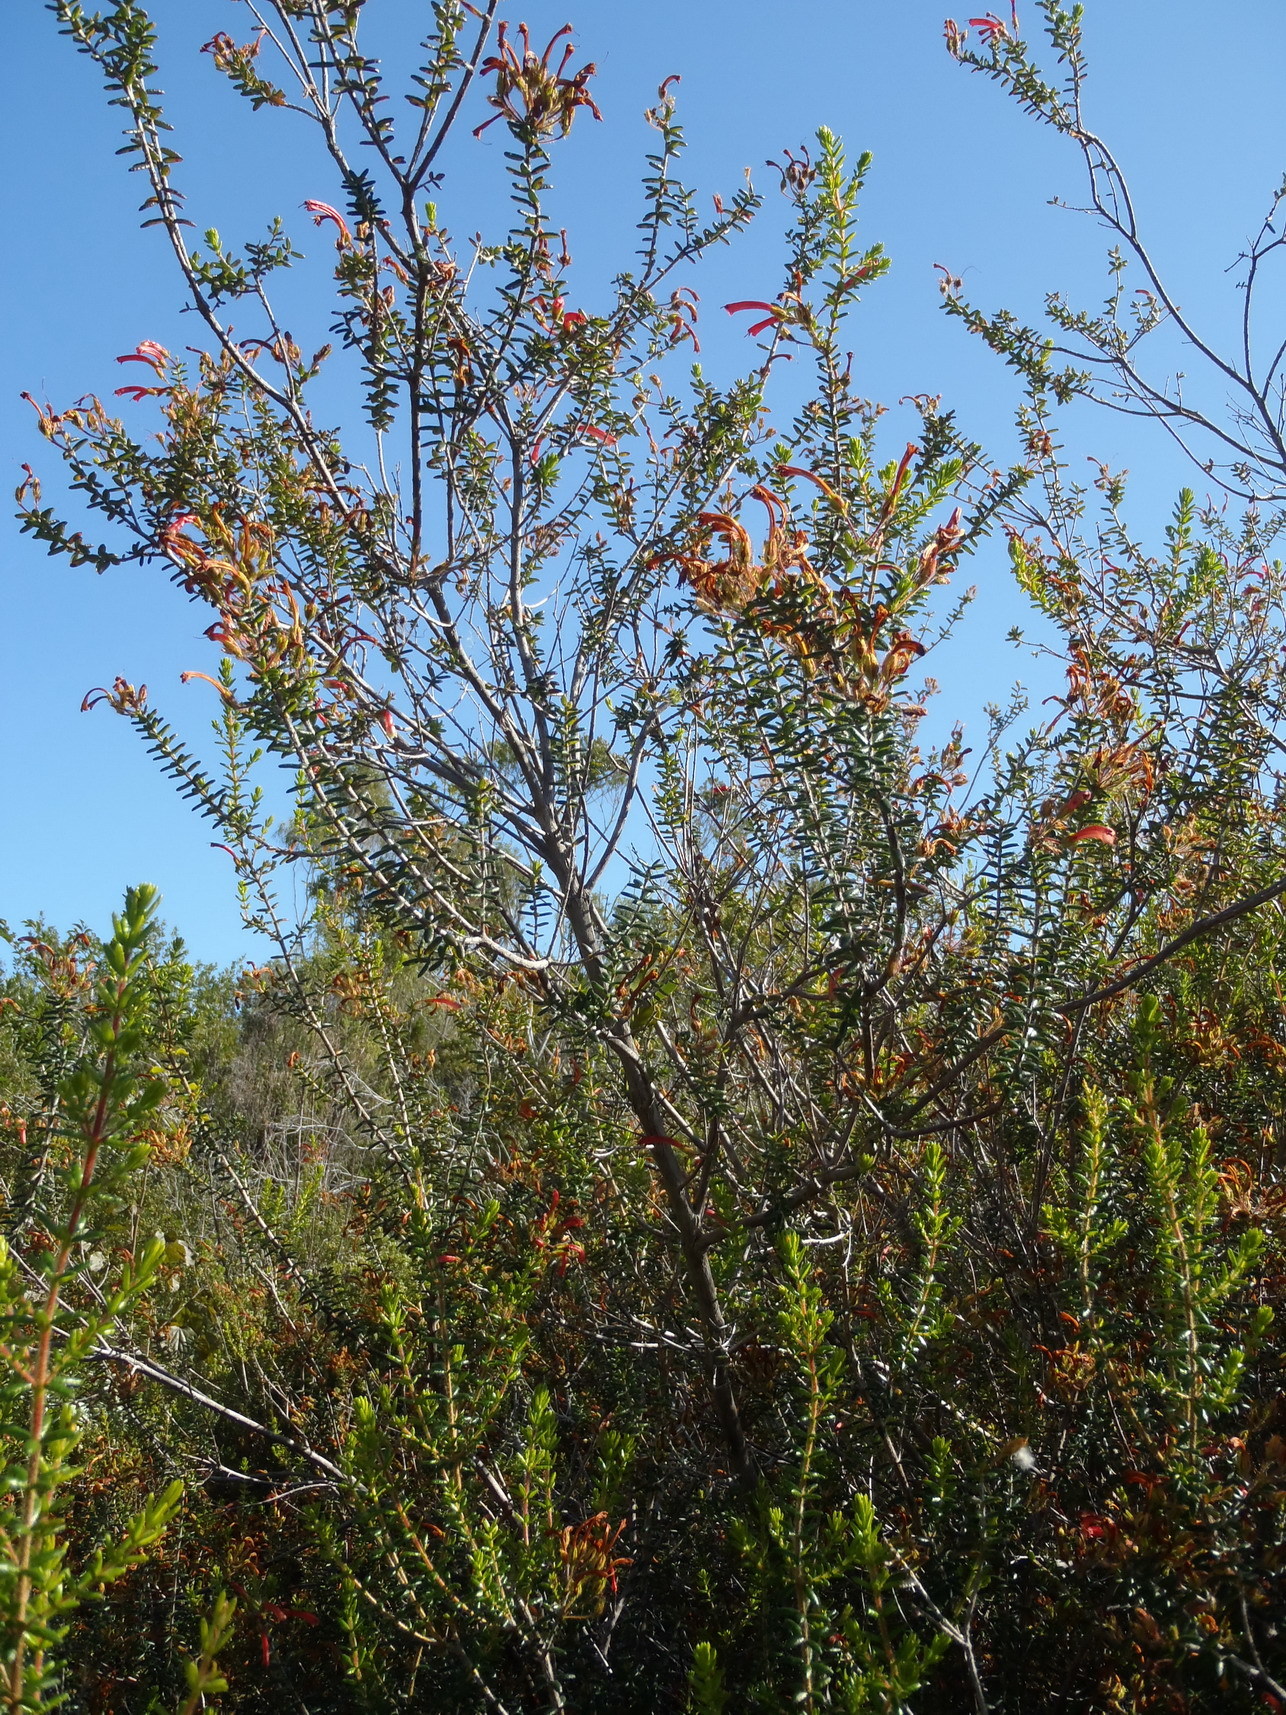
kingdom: Plantae
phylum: Tracheophyta
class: Magnoliopsida
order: Ericales
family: Ericaceae
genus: Erica
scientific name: Erica glandulosa
